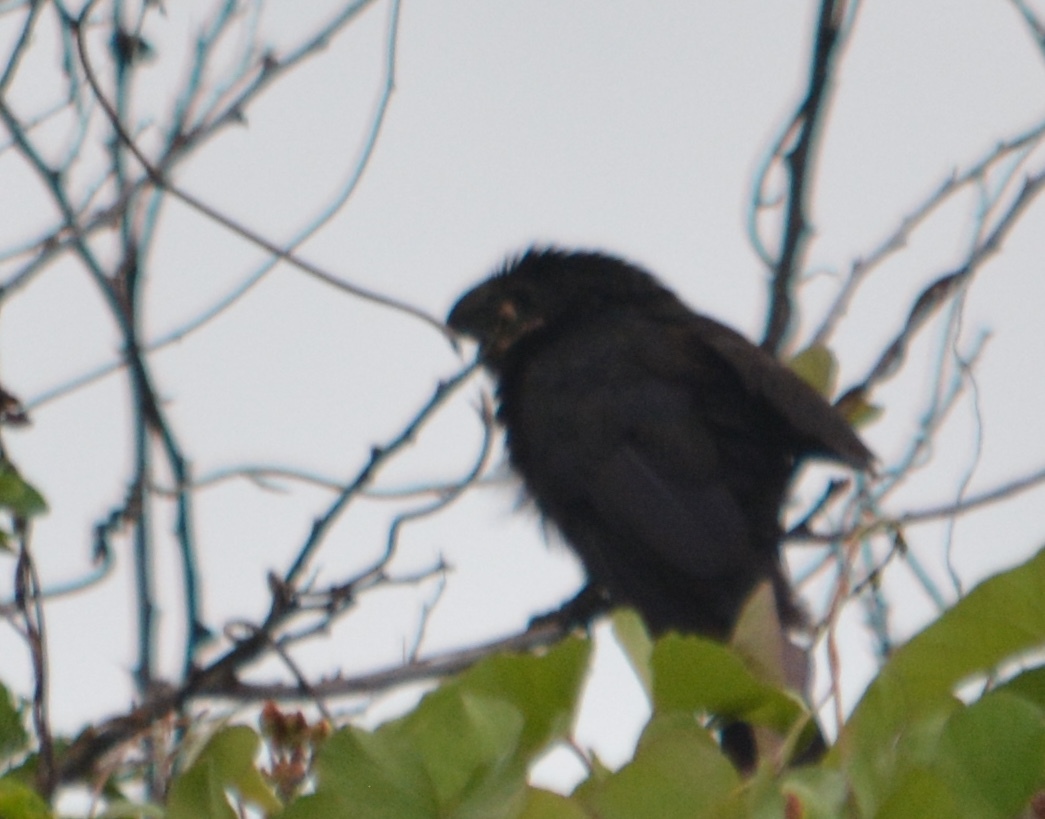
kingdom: Animalia
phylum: Chordata
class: Aves
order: Cuculiformes
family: Cuculidae
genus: Crotophaga
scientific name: Crotophaga sulcirostris
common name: Groove-billed ani
